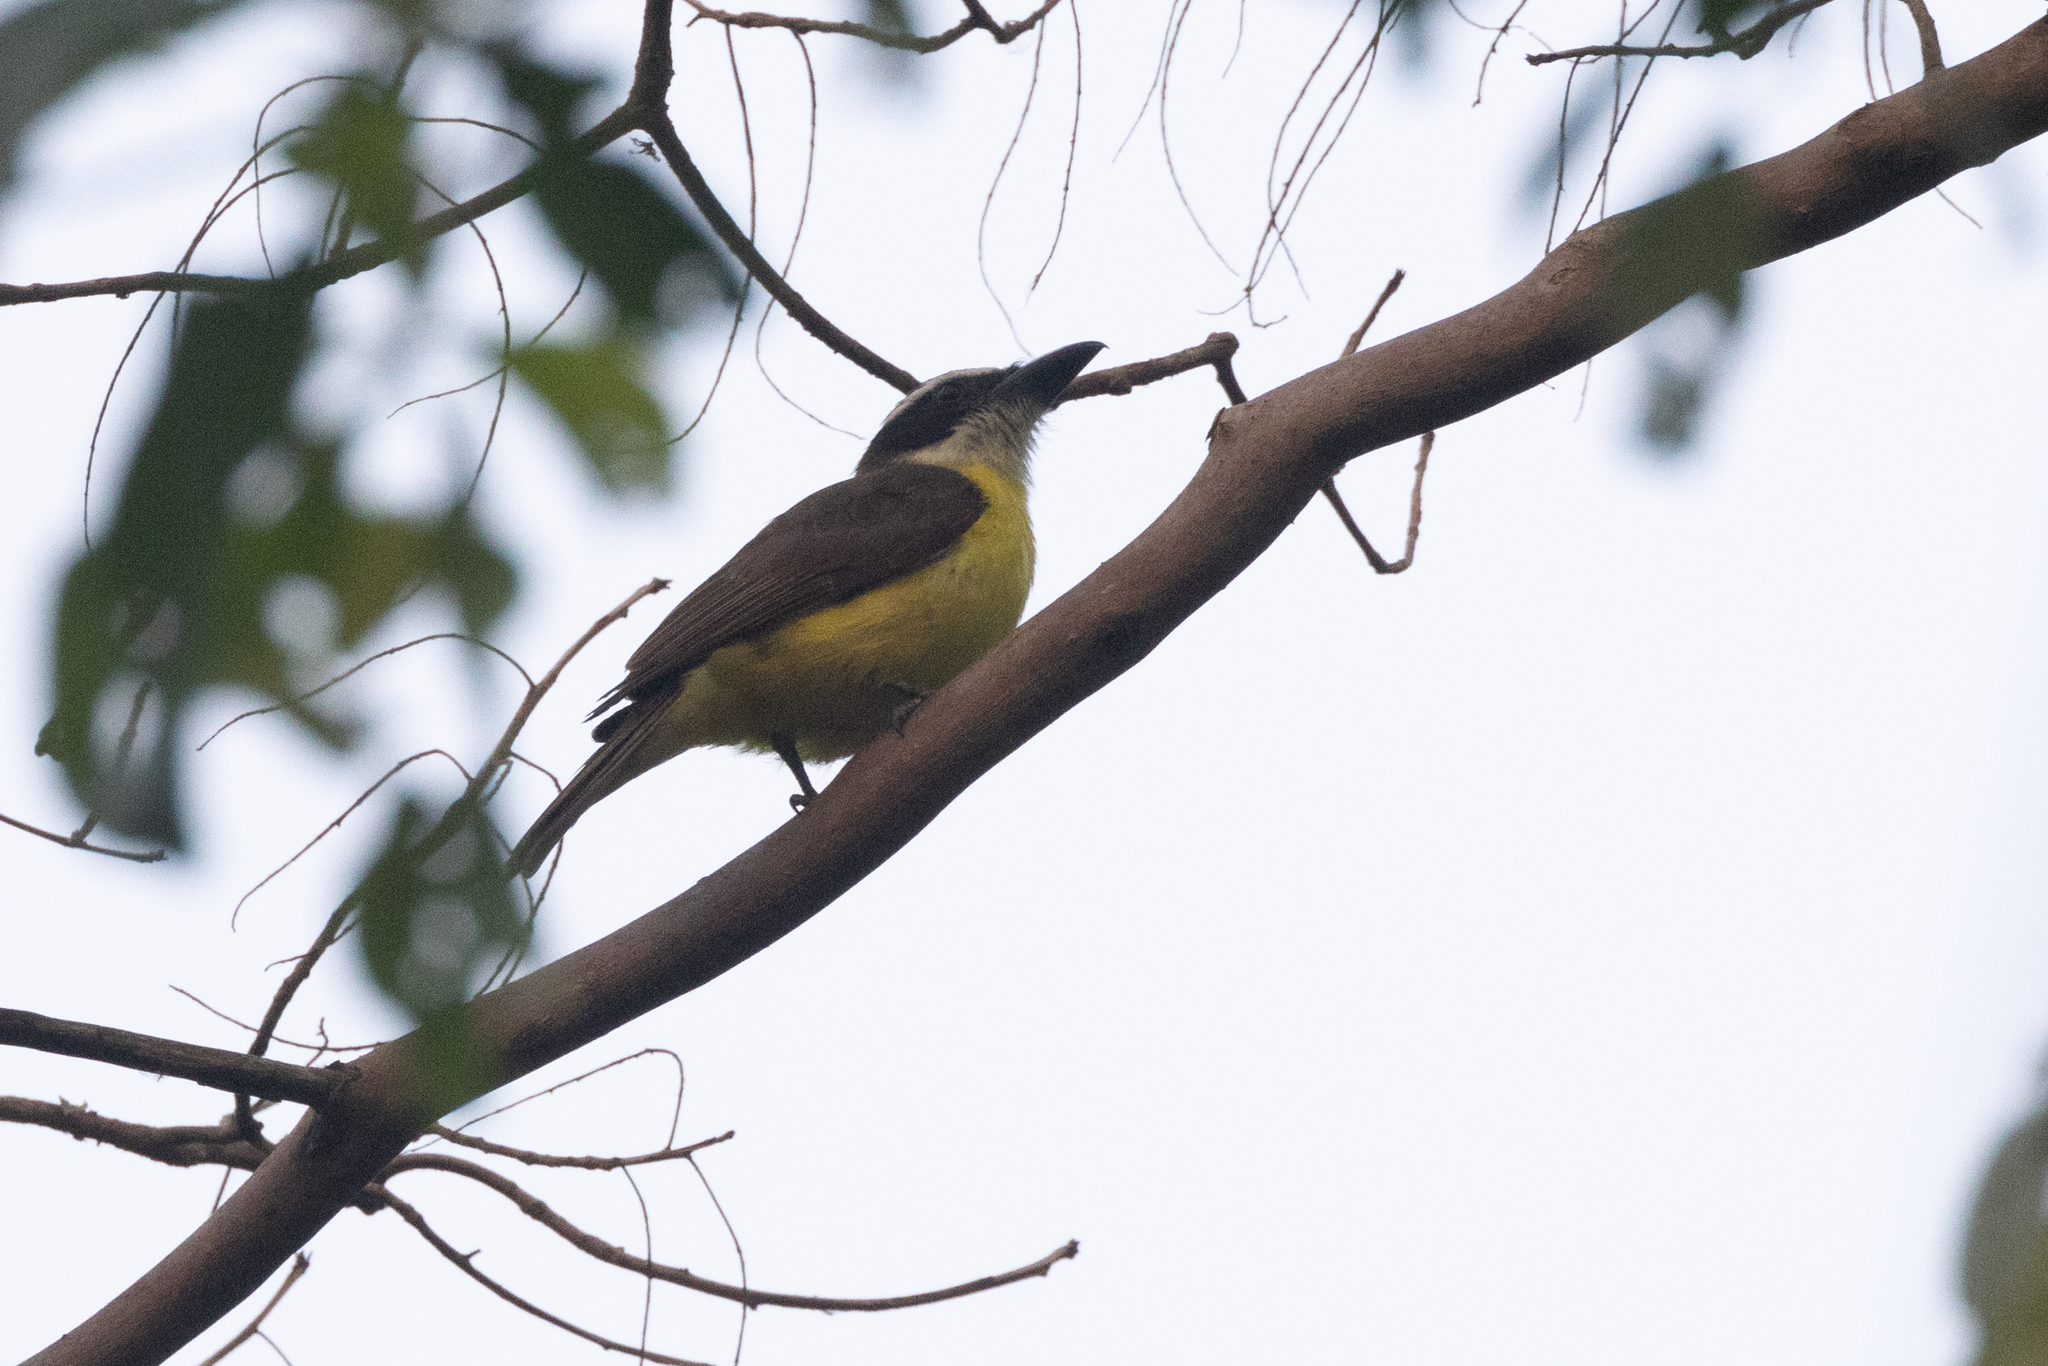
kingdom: Animalia
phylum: Chordata
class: Aves
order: Passeriformes
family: Tyrannidae
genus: Megarynchus
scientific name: Megarynchus pitangua
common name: Boat-billed flycatcher
